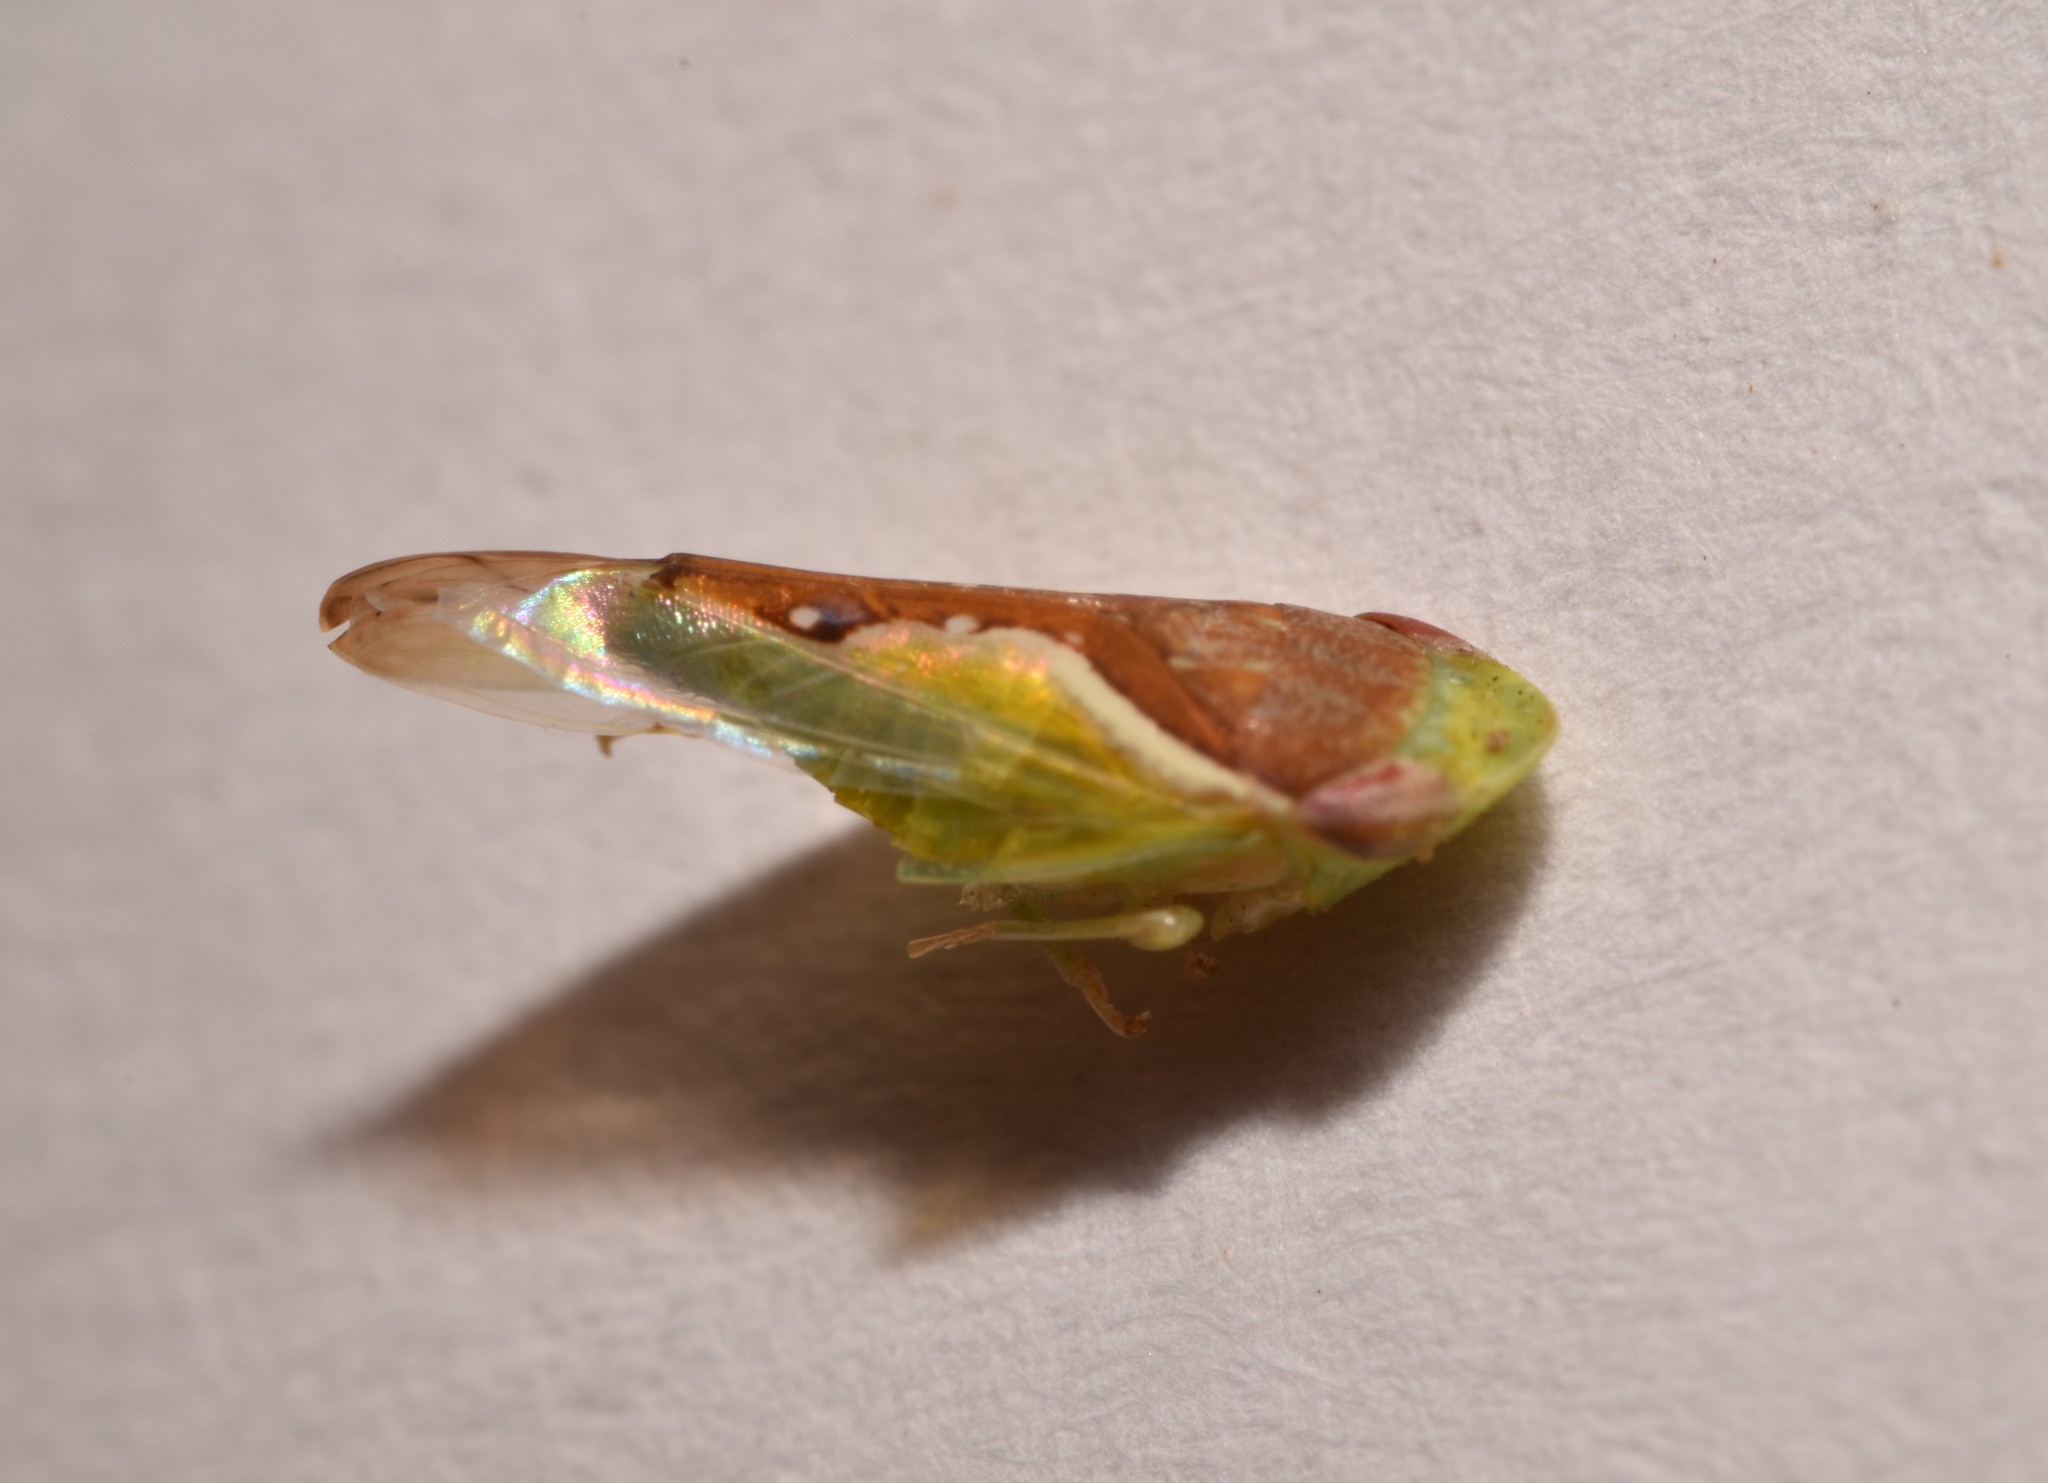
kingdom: Animalia
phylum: Arthropoda
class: Insecta
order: Hemiptera
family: Cicadellidae
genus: Omansobara ing
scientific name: Omansobara ing Omansobara palliolata
